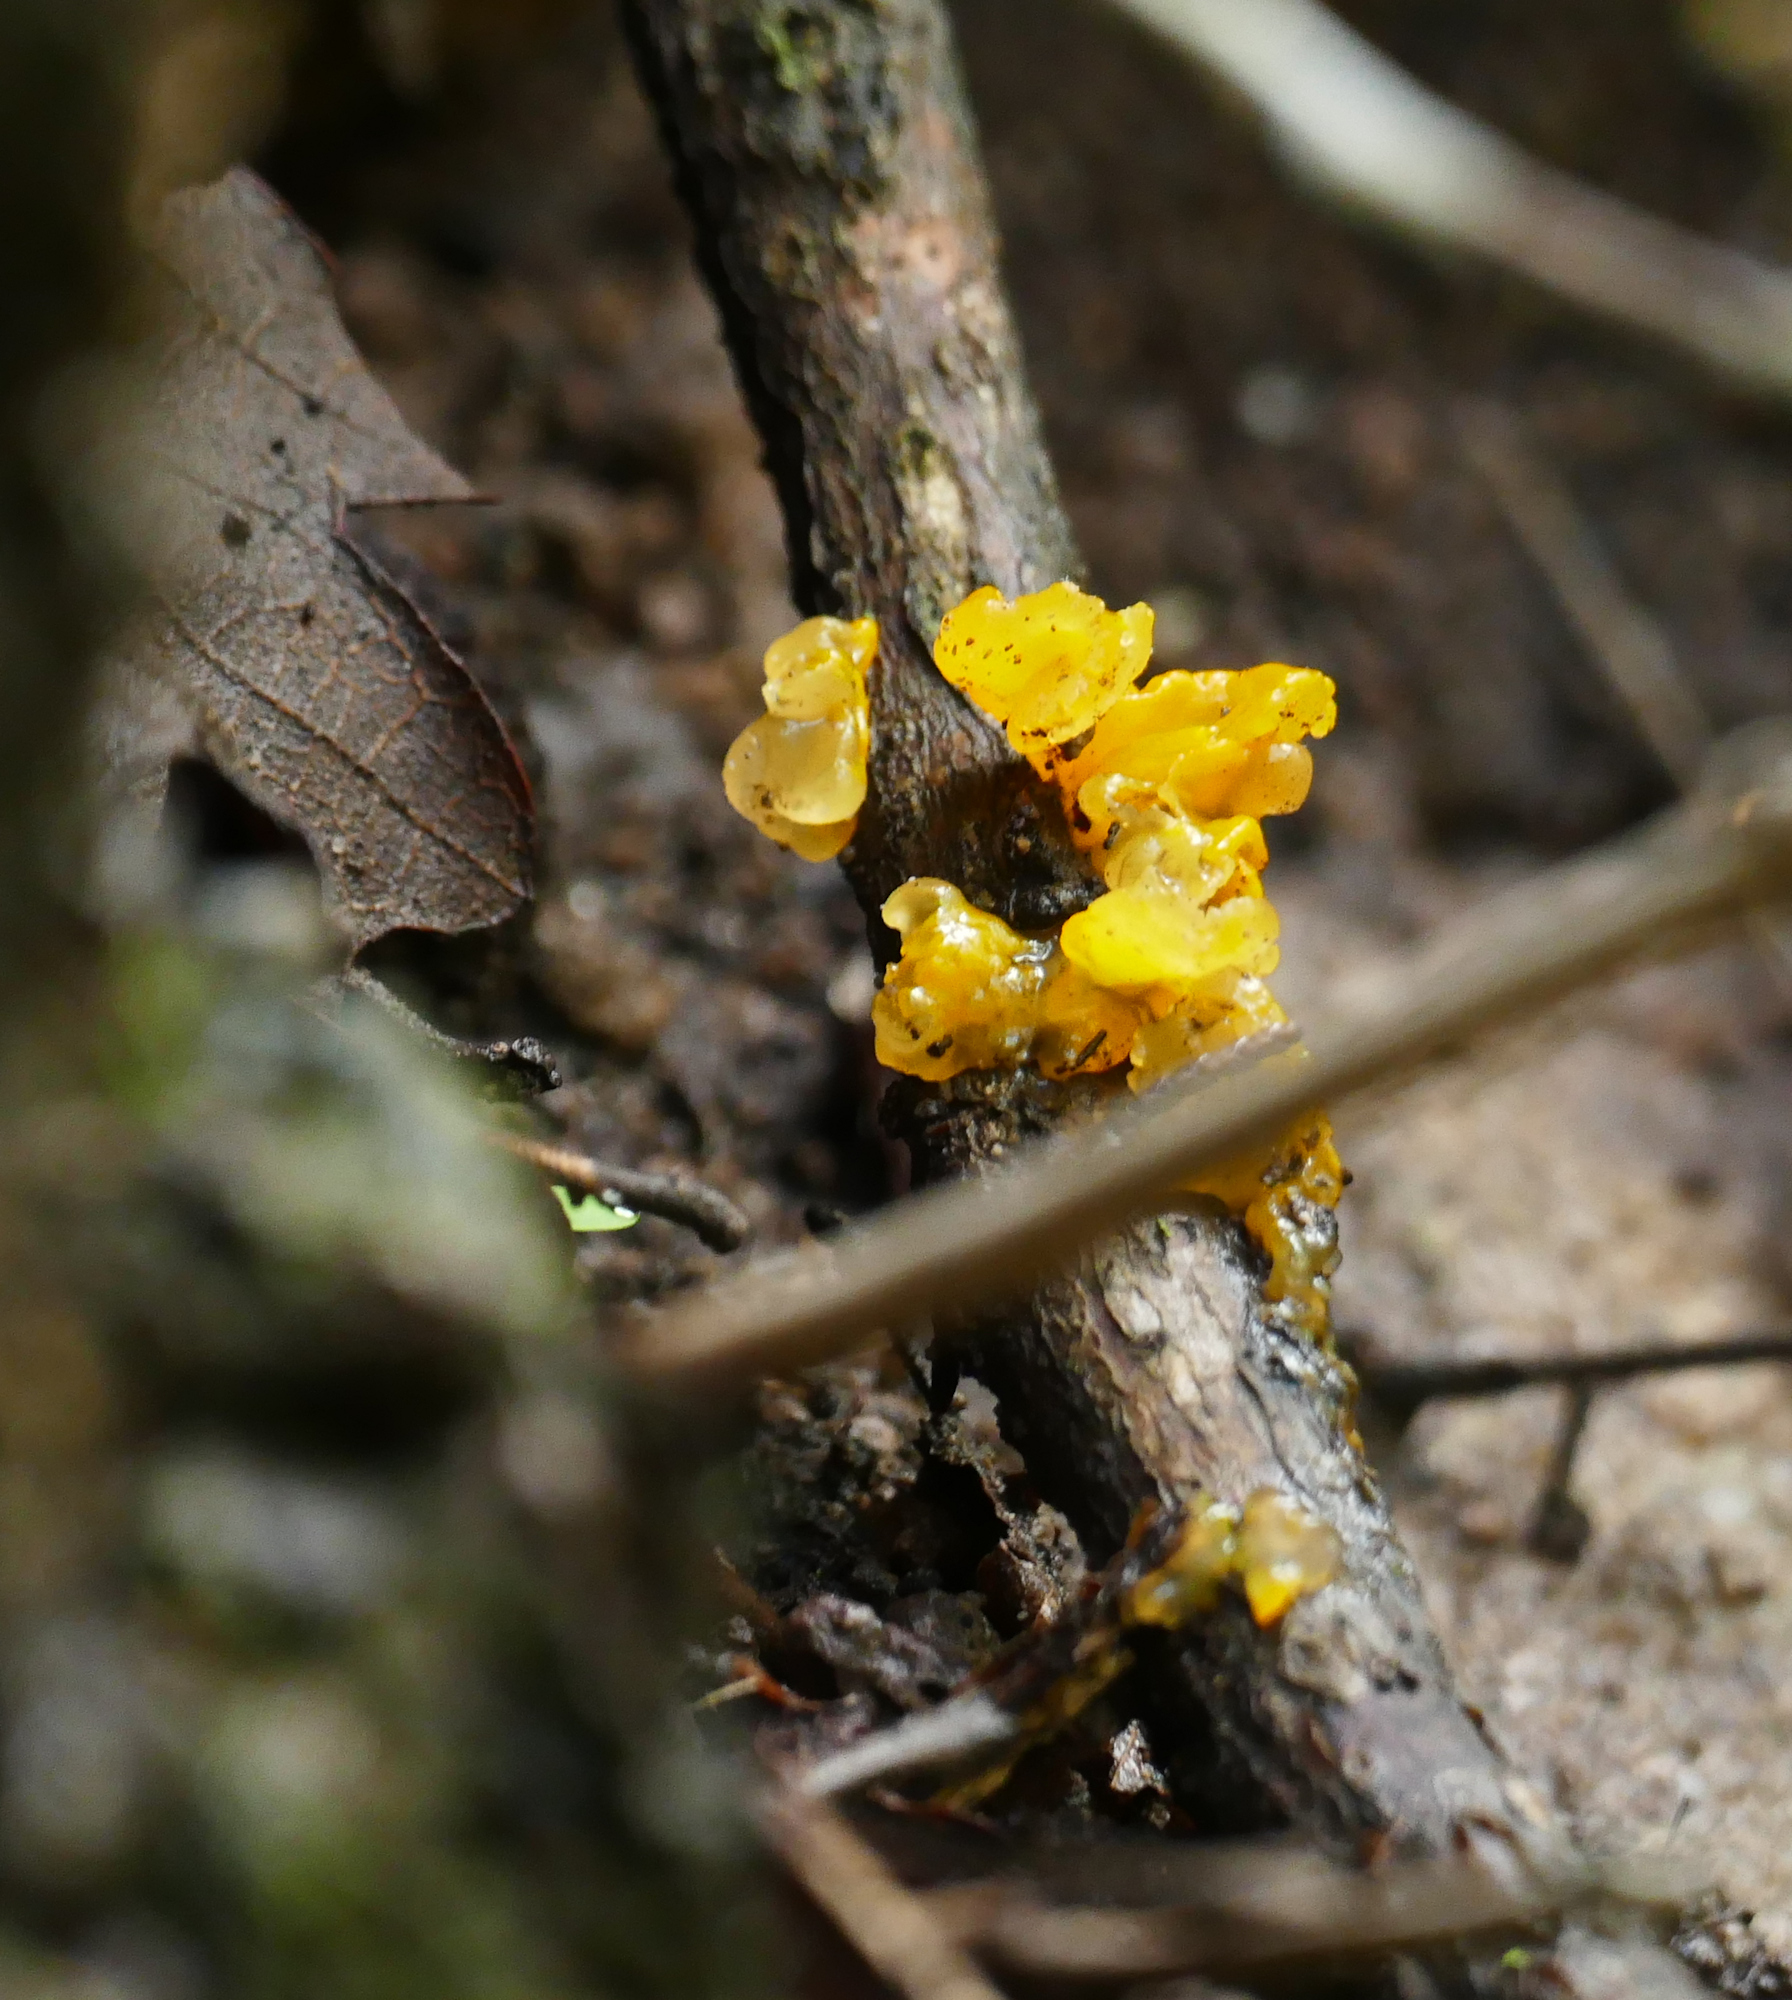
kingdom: Fungi
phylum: Basidiomycota
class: Tremellomycetes
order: Tremellales
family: Tremellaceae
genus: Tremella
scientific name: Tremella mesenterica
